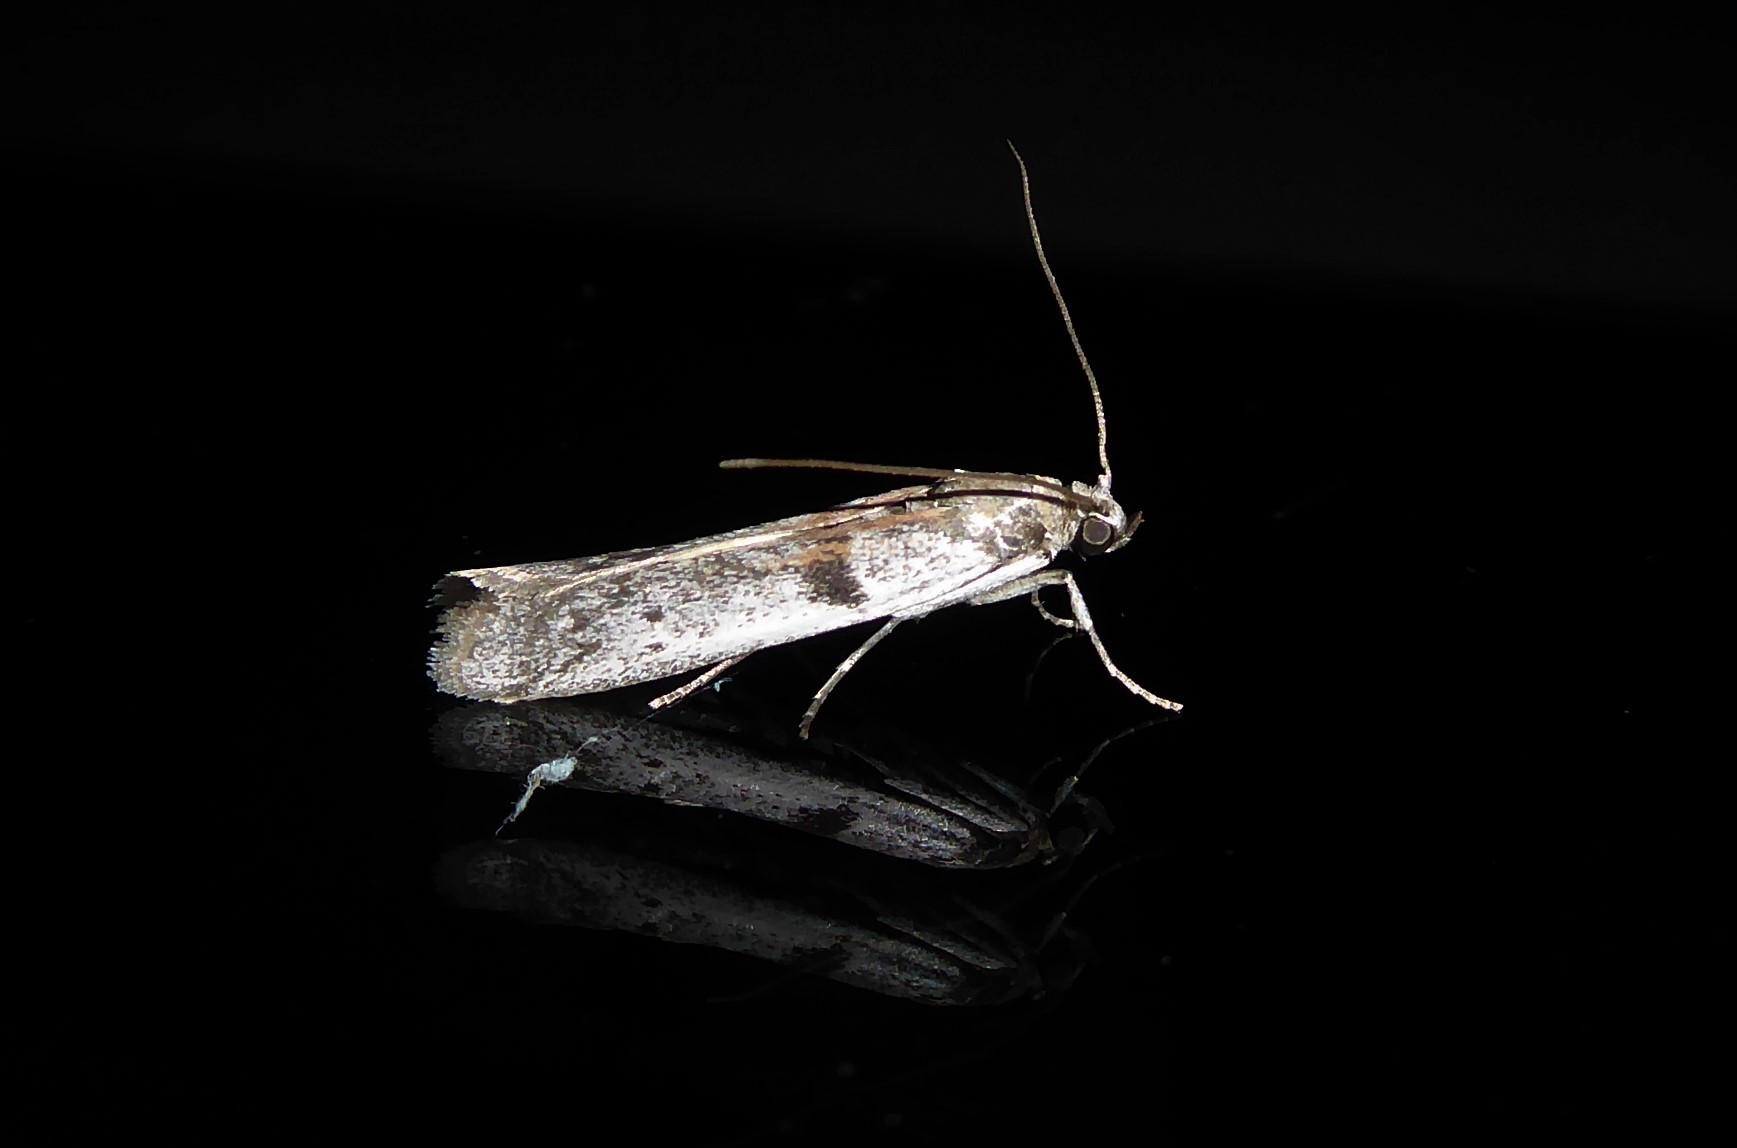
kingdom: Animalia
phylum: Arthropoda
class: Insecta
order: Lepidoptera
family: Pyralidae
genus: Patagoniodes
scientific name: Patagoniodes farinaria
